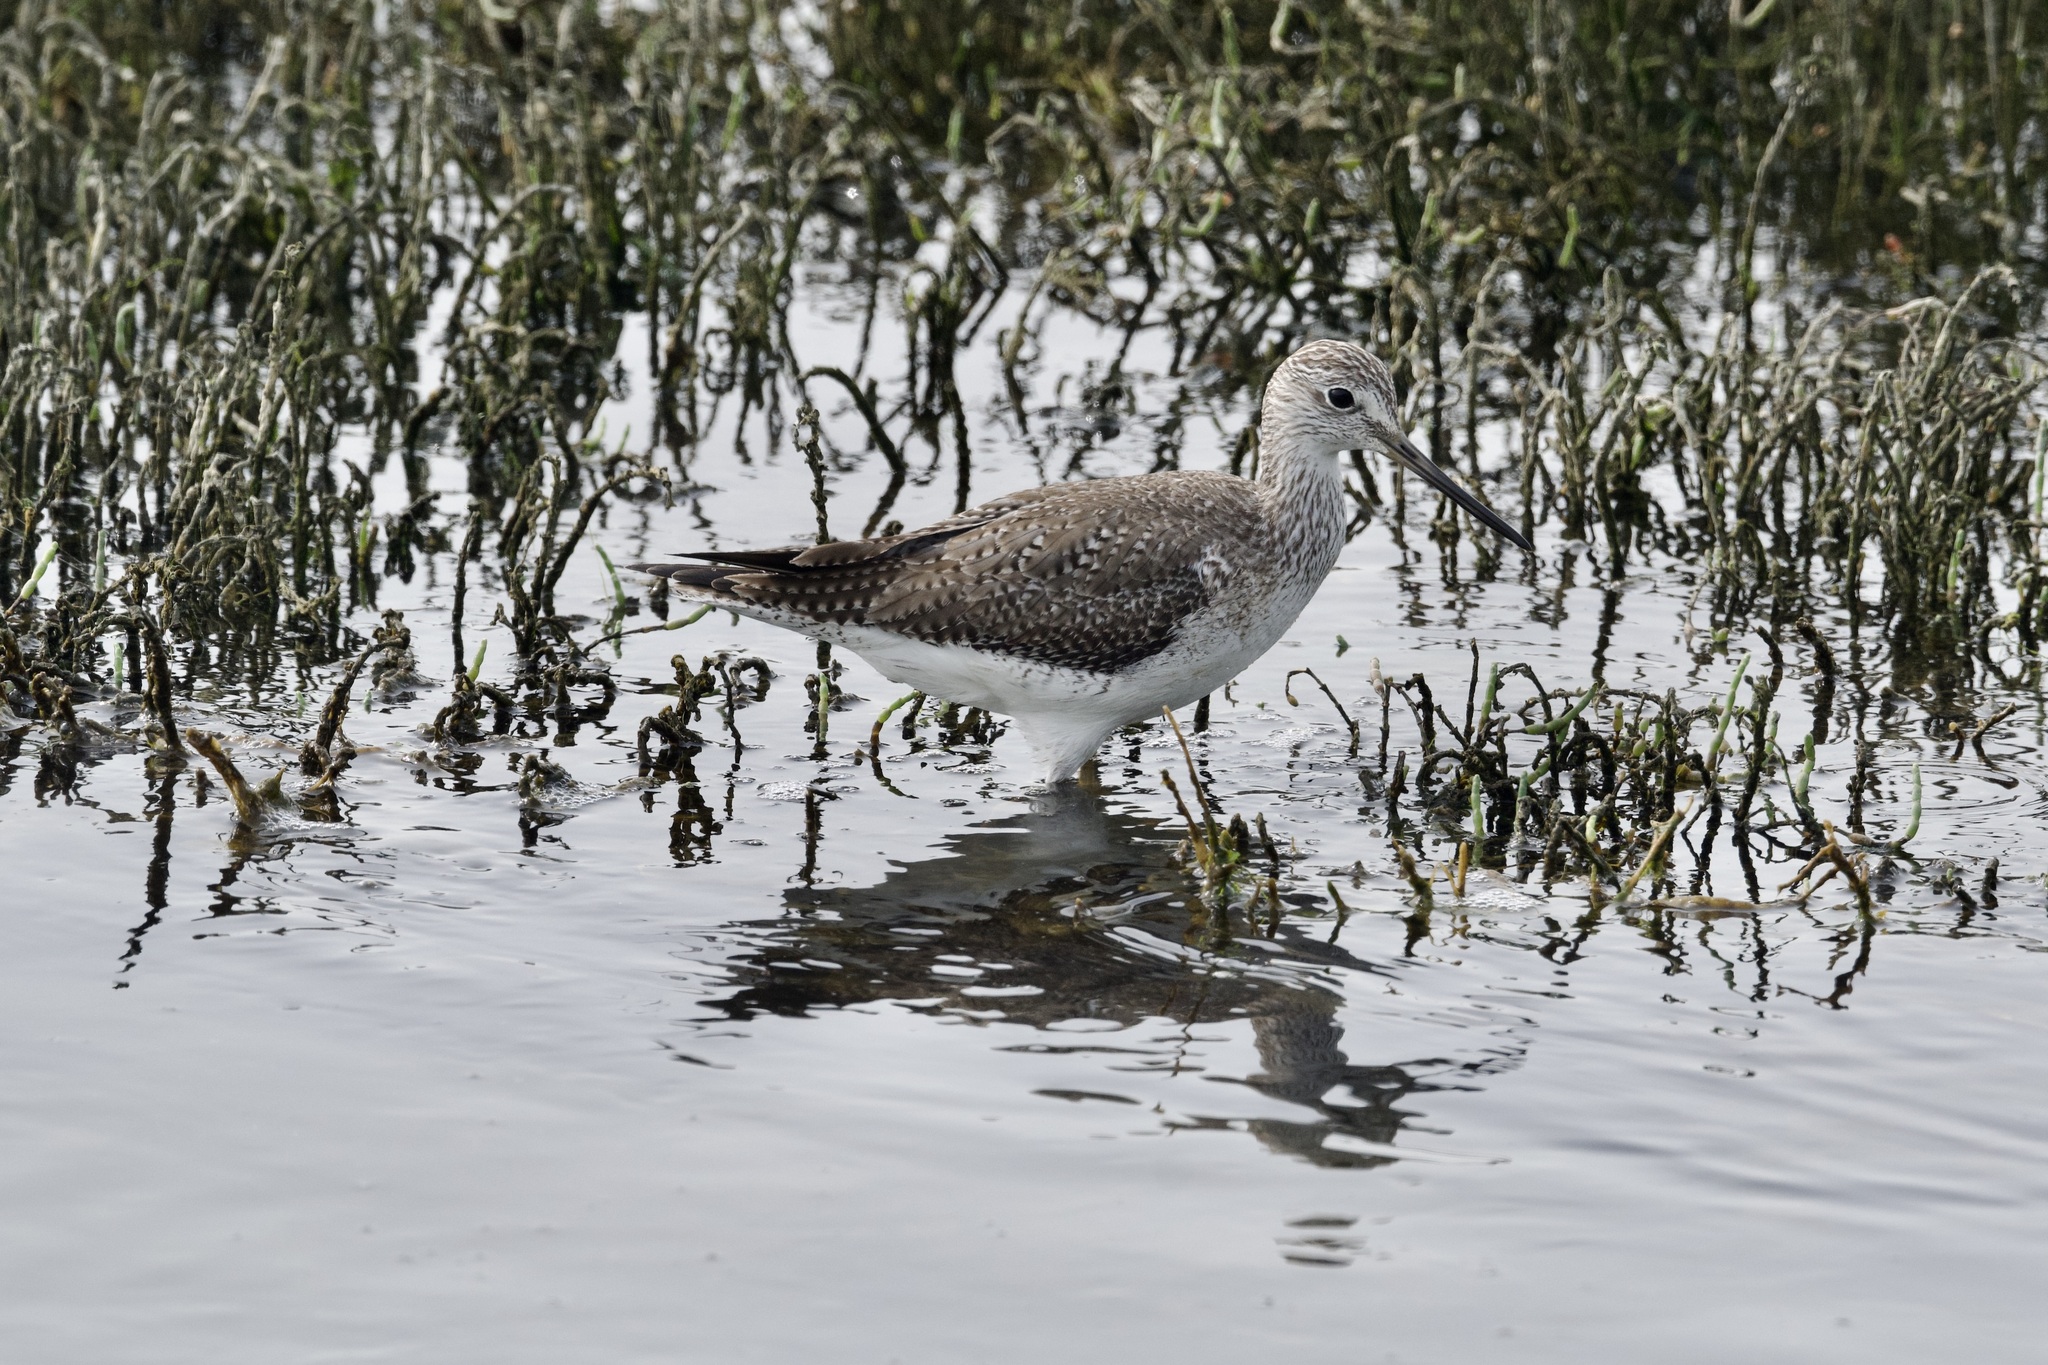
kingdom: Animalia
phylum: Chordata
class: Aves
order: Charadriiformes
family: Scolopacidae
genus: Tringa
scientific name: Tringa melanoleuca
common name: Greater yellowlegs
